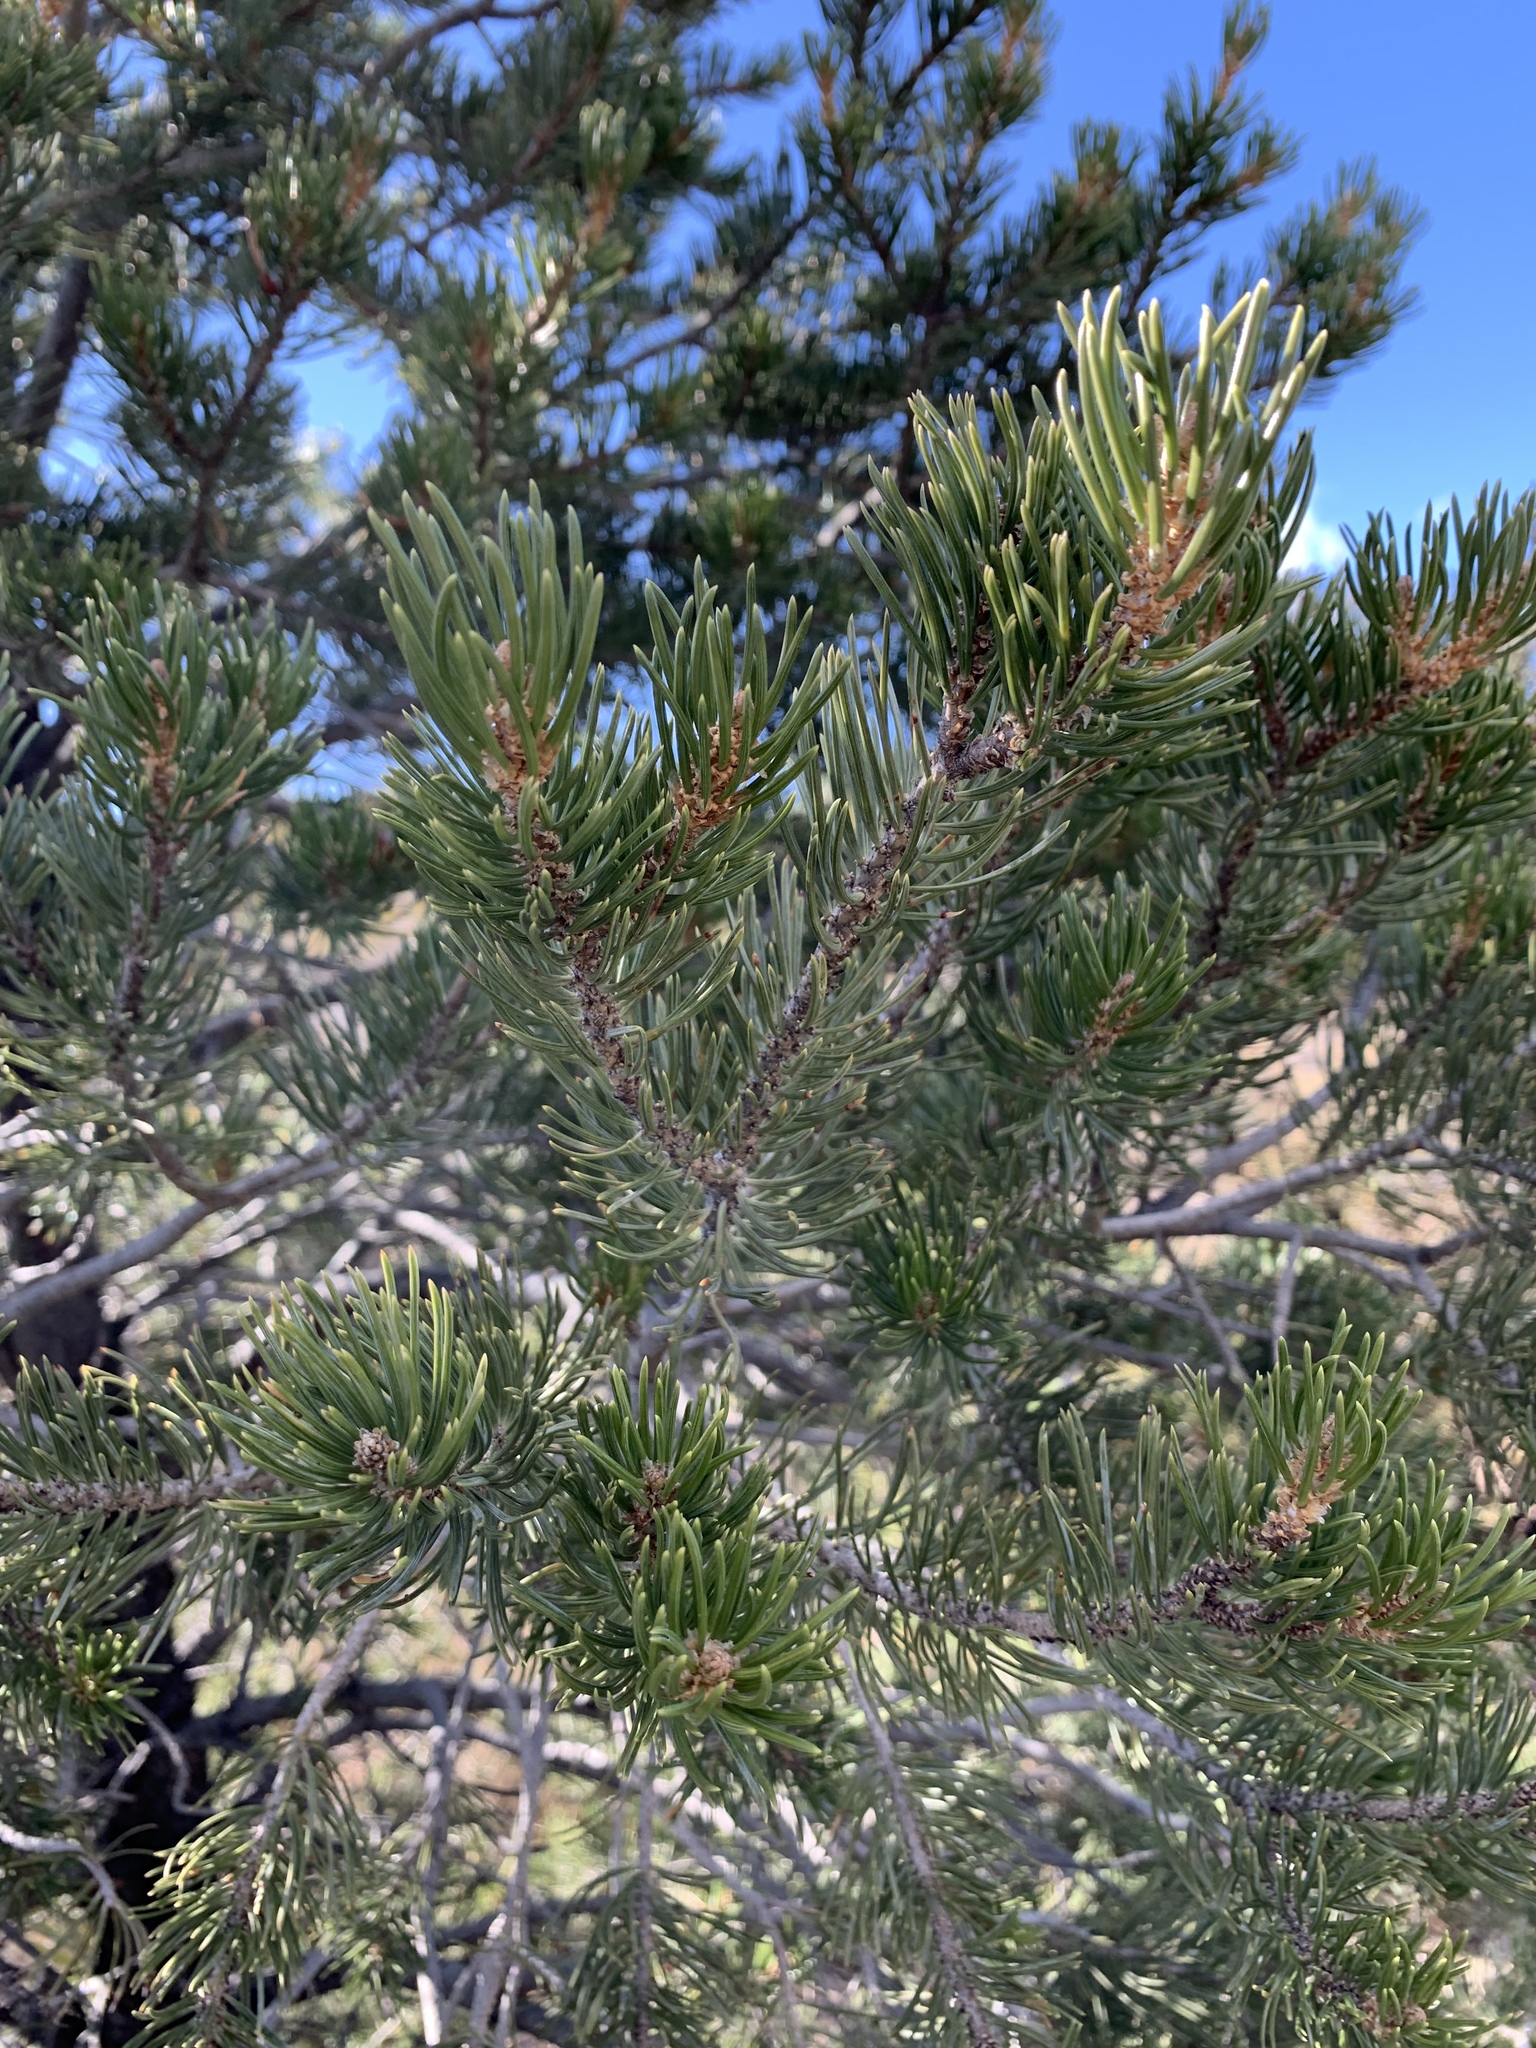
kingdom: Plantae
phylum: Tracheophyta
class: Pinopsida
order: Pinales
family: Pinaceae
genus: Pinus
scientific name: Pinus edulis
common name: Colorado pinyon
